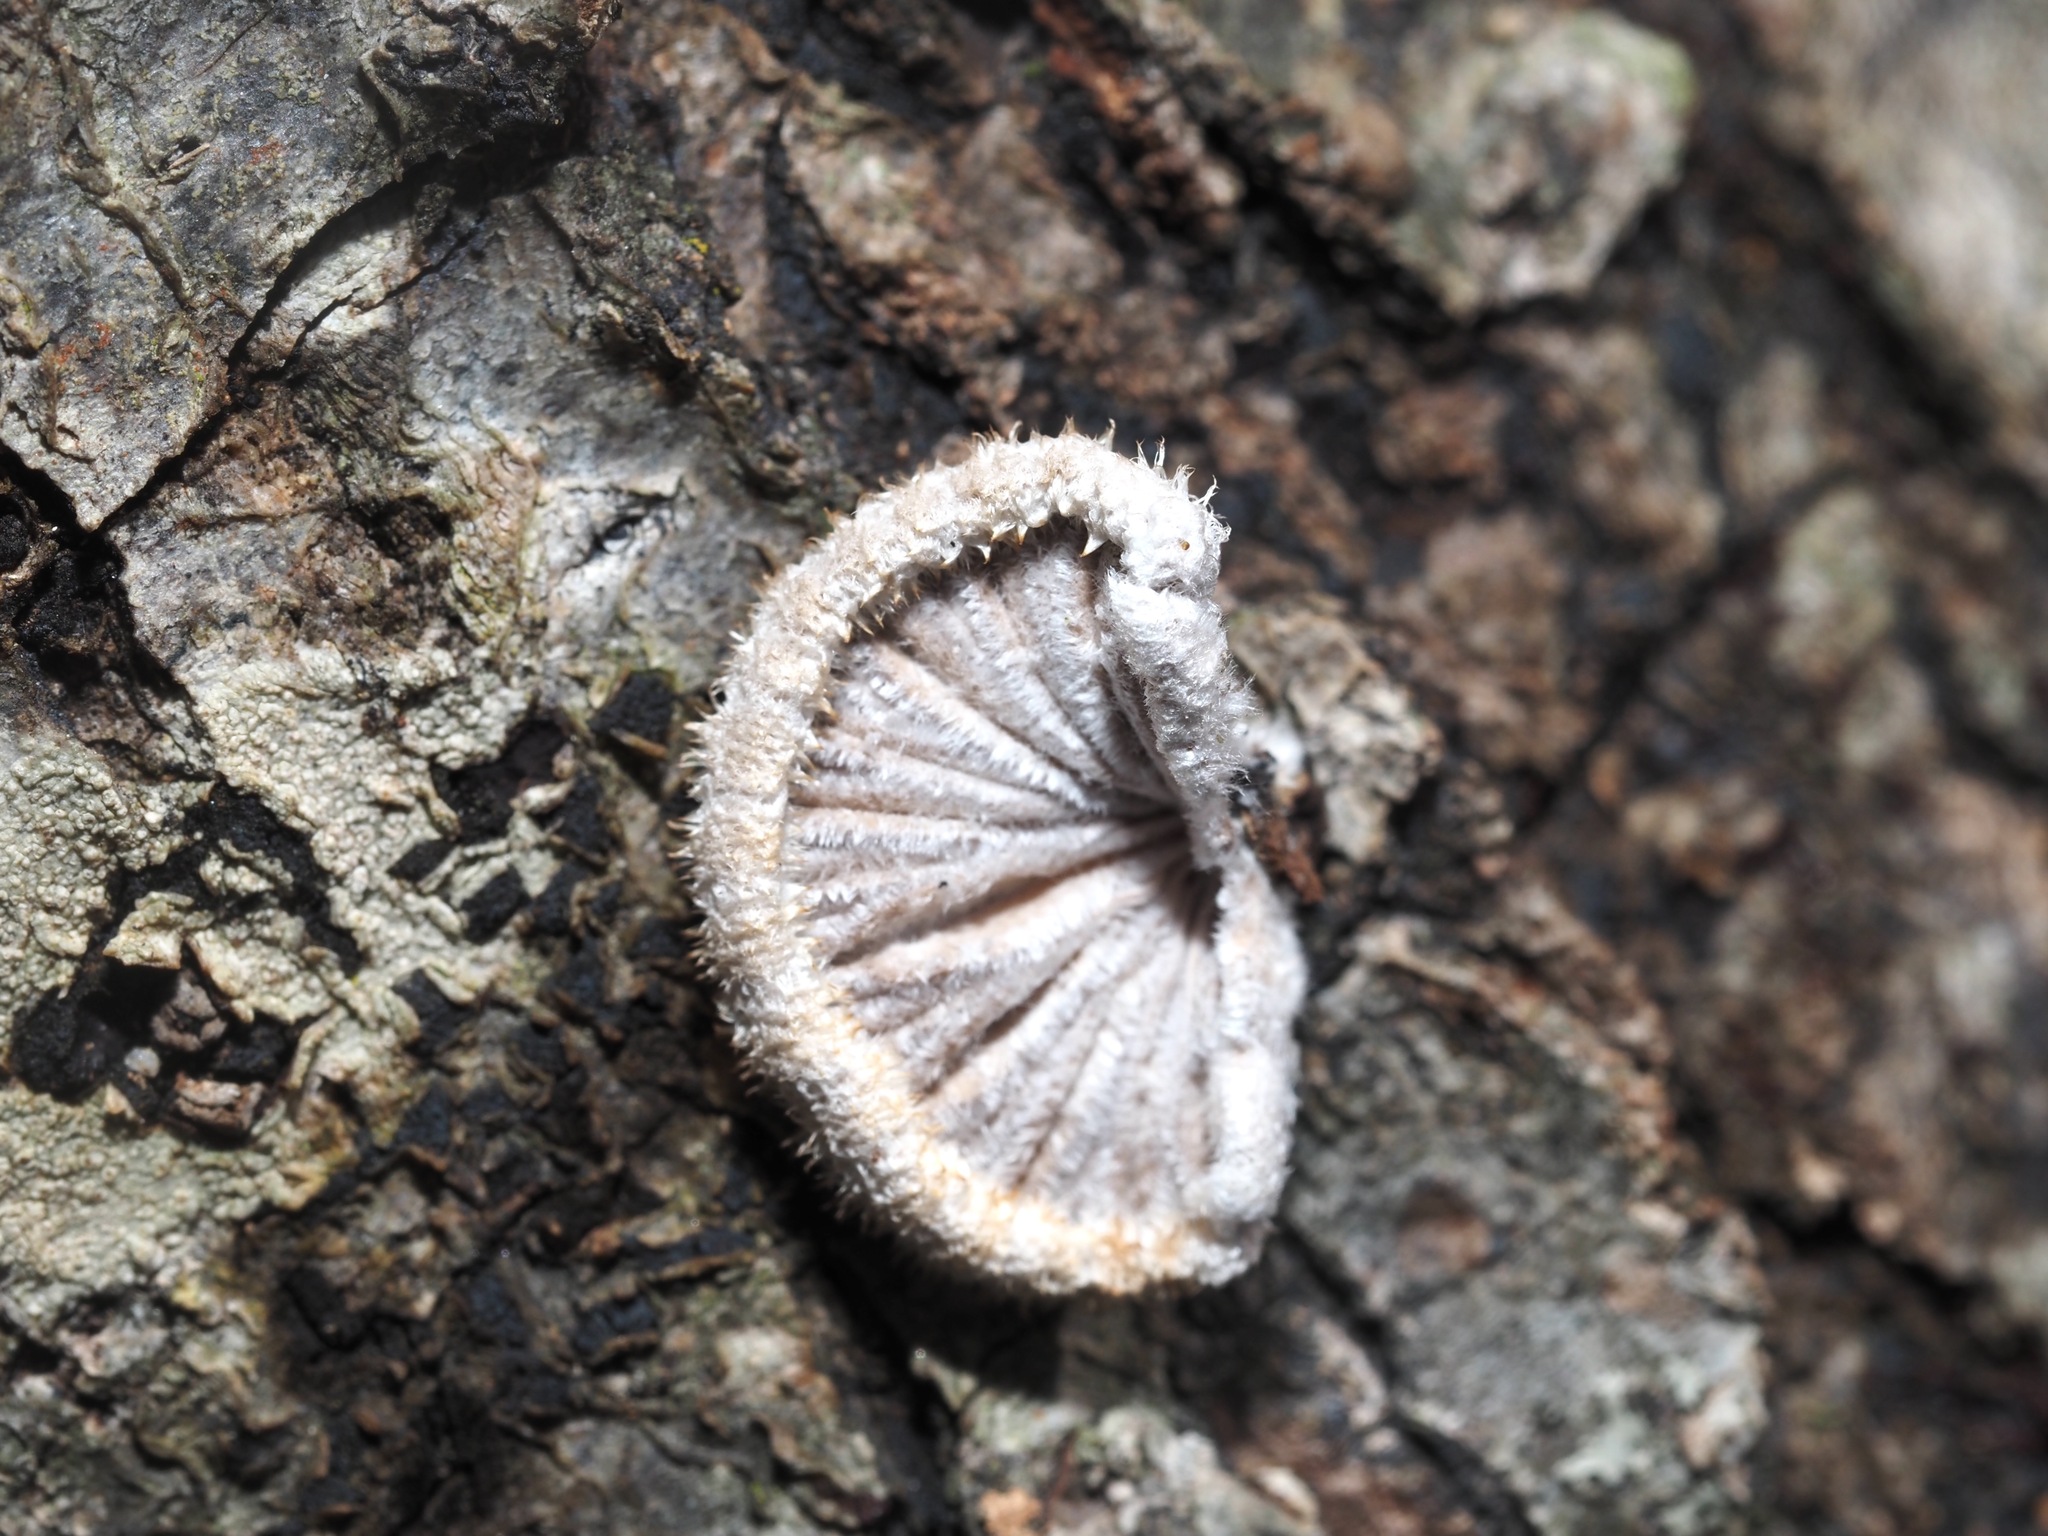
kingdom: Fungi
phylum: Basidiomycota
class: Agaricomycetes
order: Agaricales
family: Schizophyllaceae
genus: Schizophyllum
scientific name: Schizophyllum commune
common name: Common porecrust
